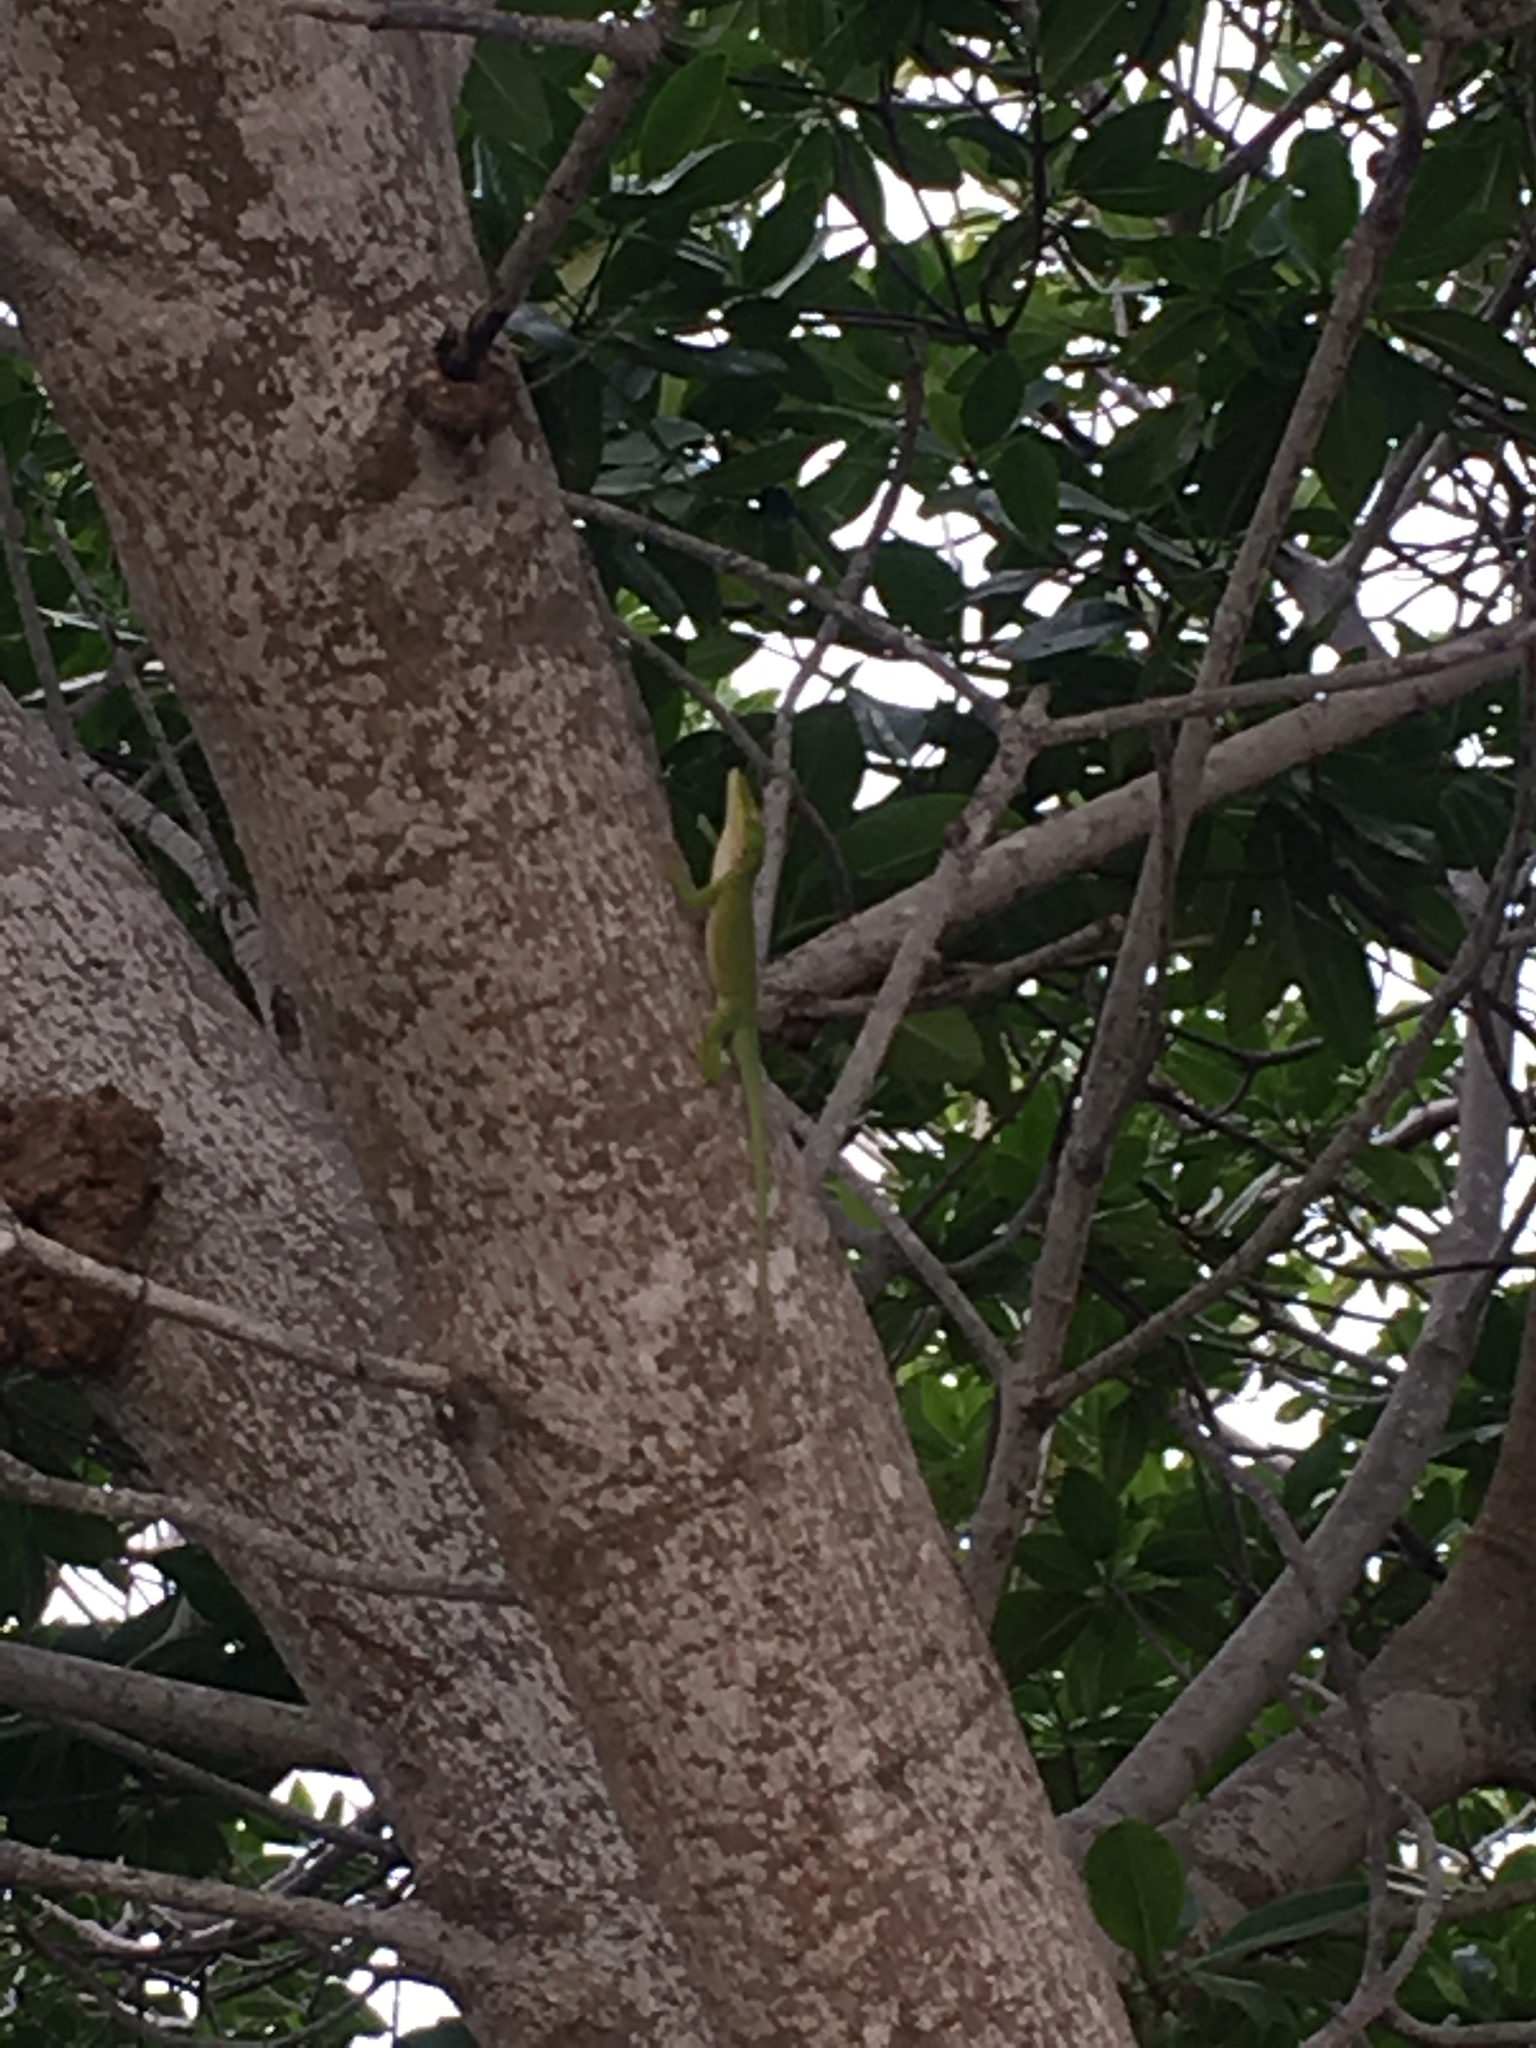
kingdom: Animalia
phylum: Chordata
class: Squamata
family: Dactyloidae
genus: Anolis
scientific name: Anolis carolinensis
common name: Green anole
